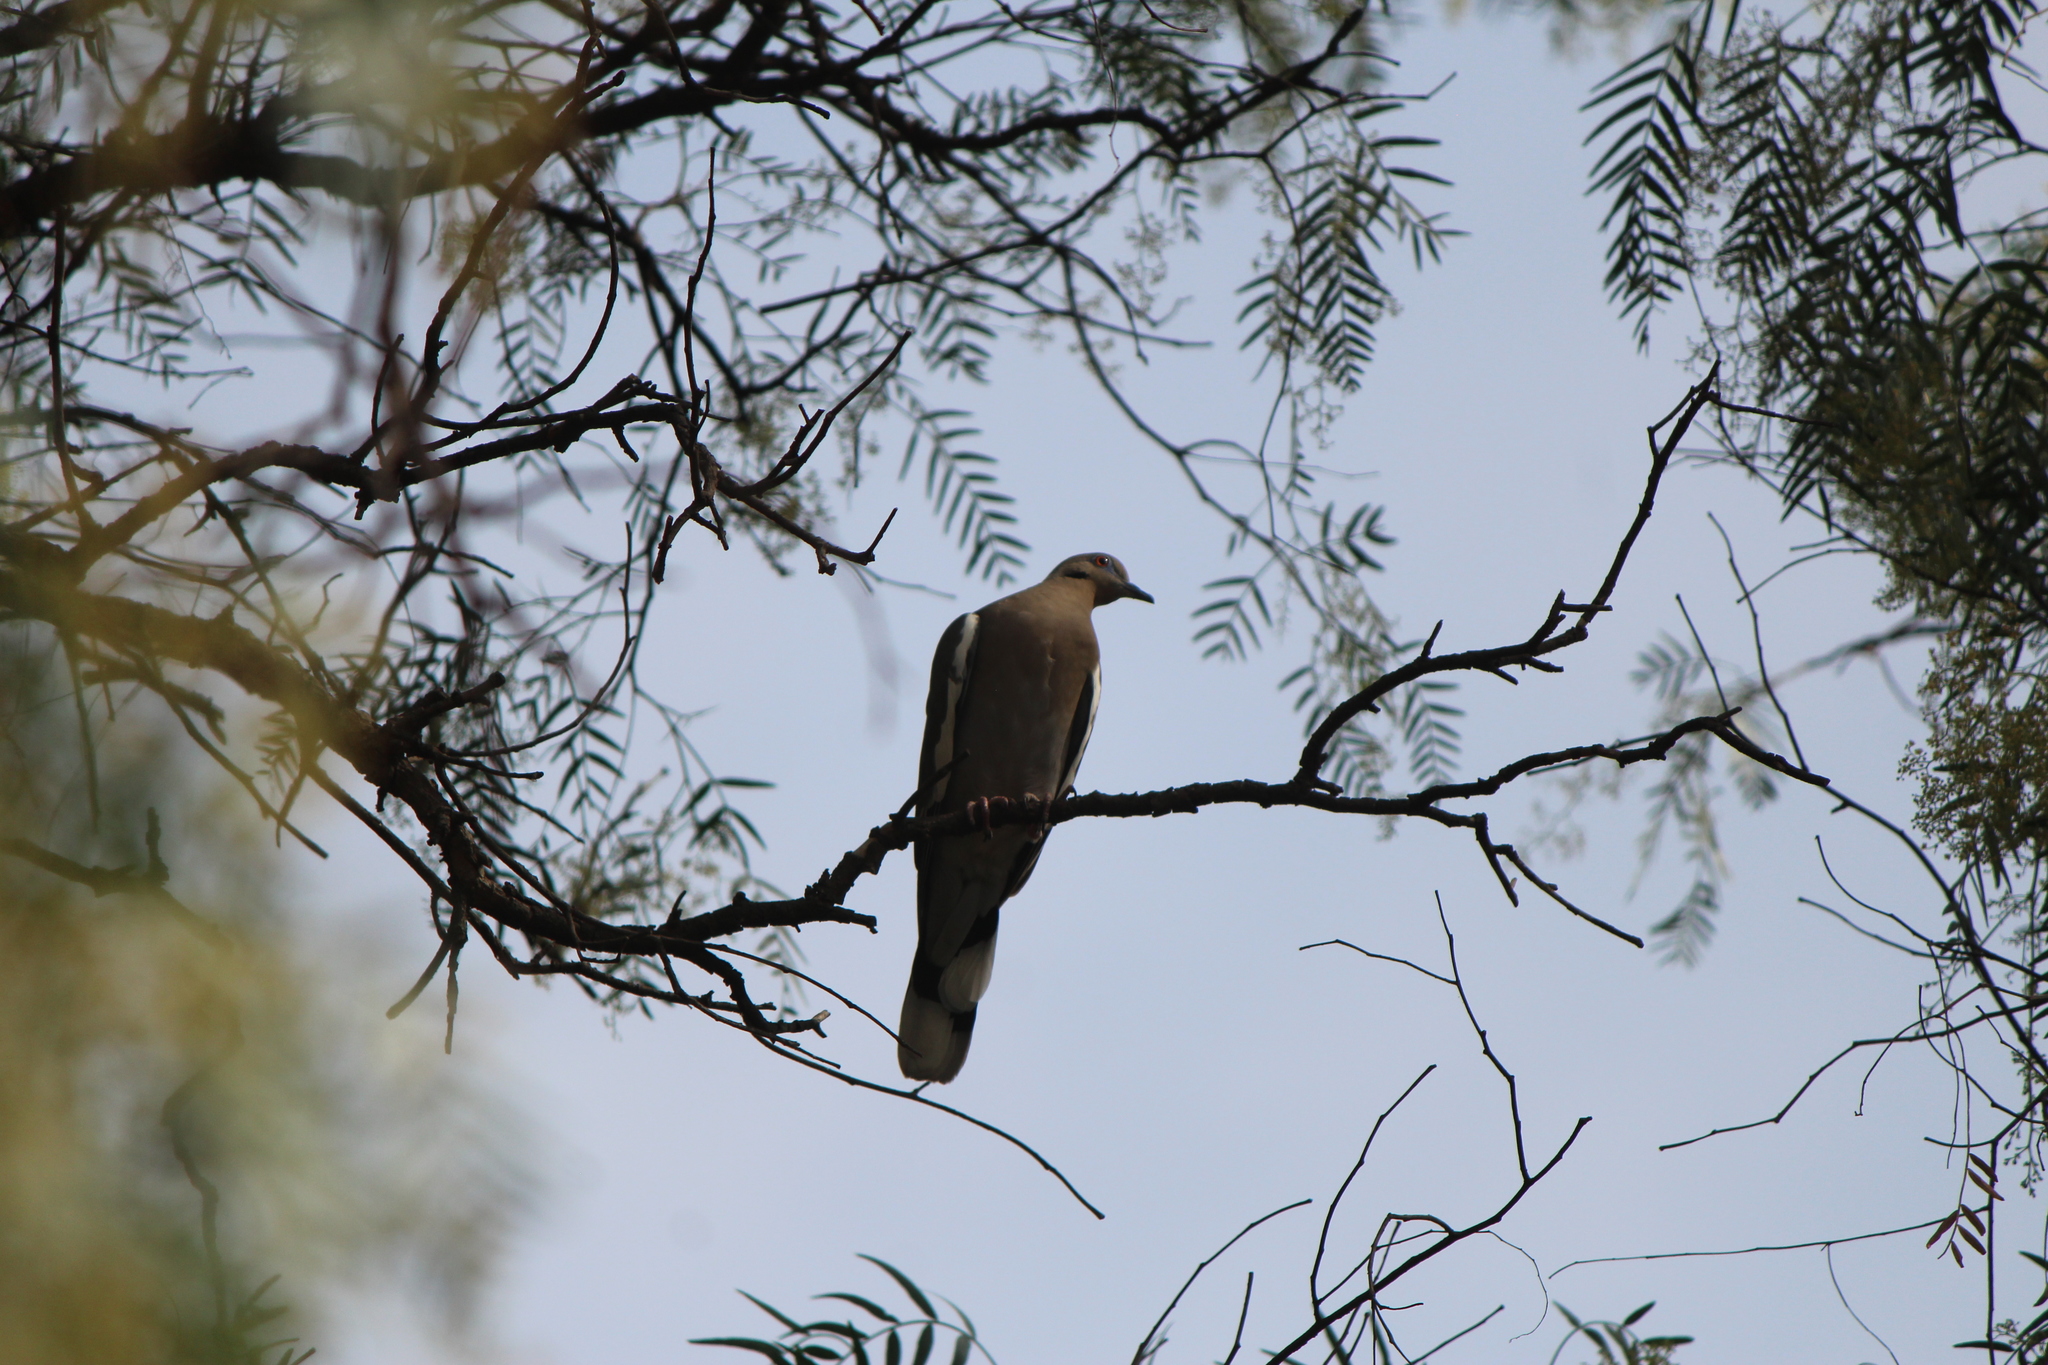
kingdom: Animalia
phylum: Chordata
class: Aves
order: Columbiformes
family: Columbidae
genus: Zenaida
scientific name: Zenaida asiatica
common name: White-winged dove
